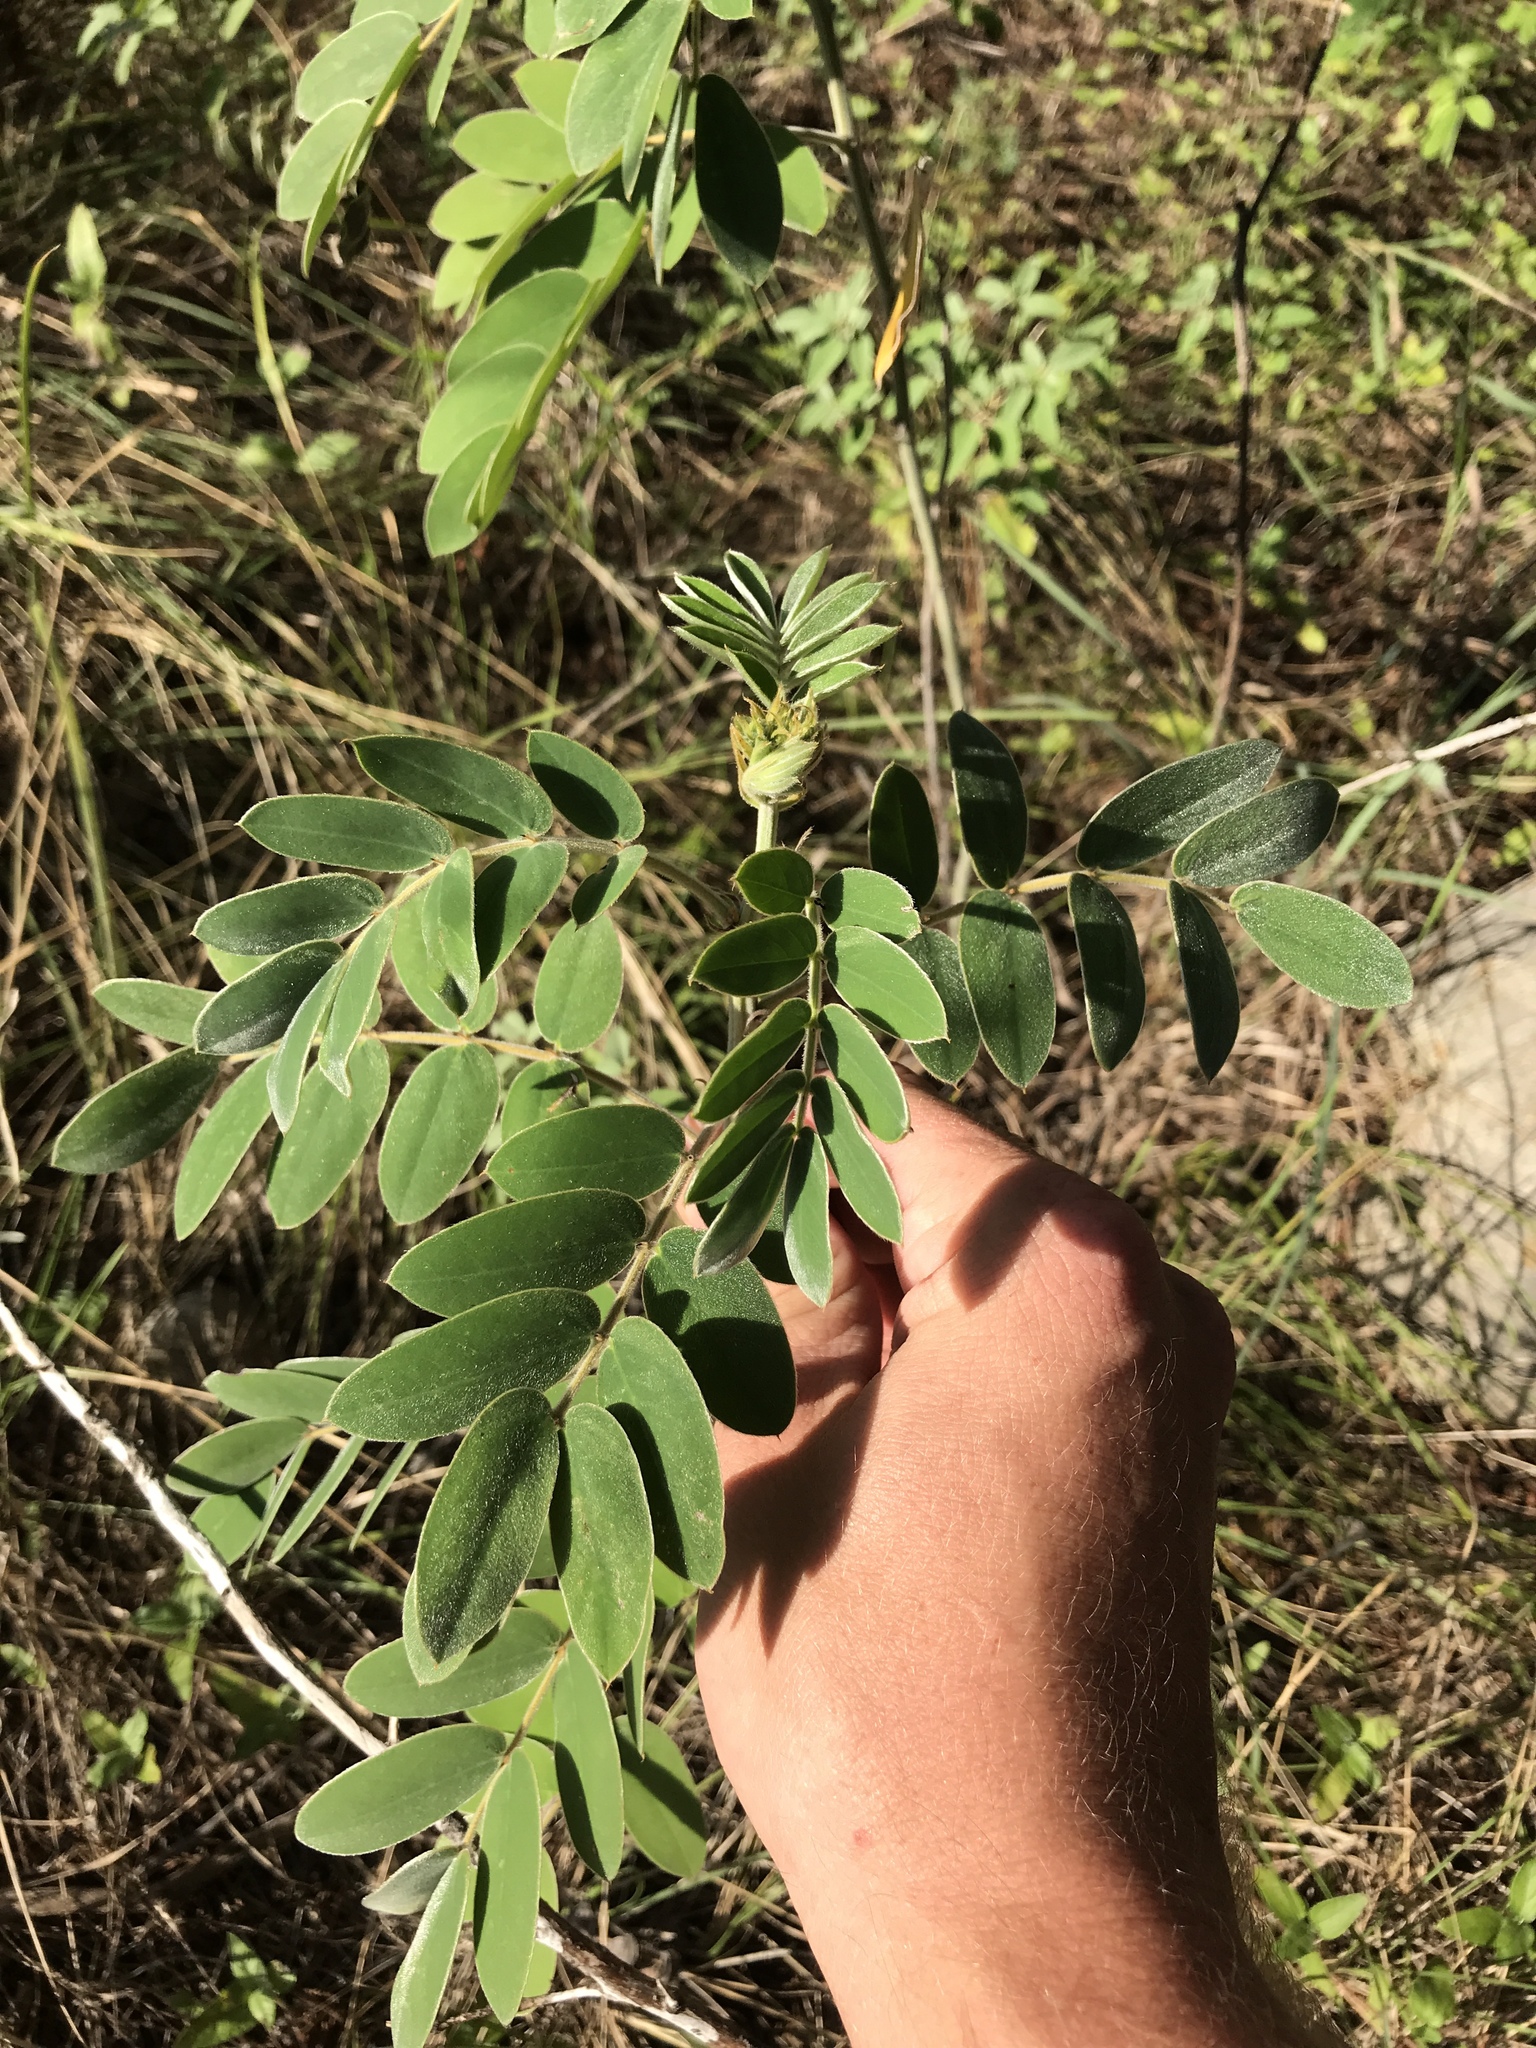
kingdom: Plantae
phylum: Tracheophyta
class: Magnoliopsida
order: Fabales
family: Fabaceae
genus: Senna
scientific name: Senna lindheimeriana
